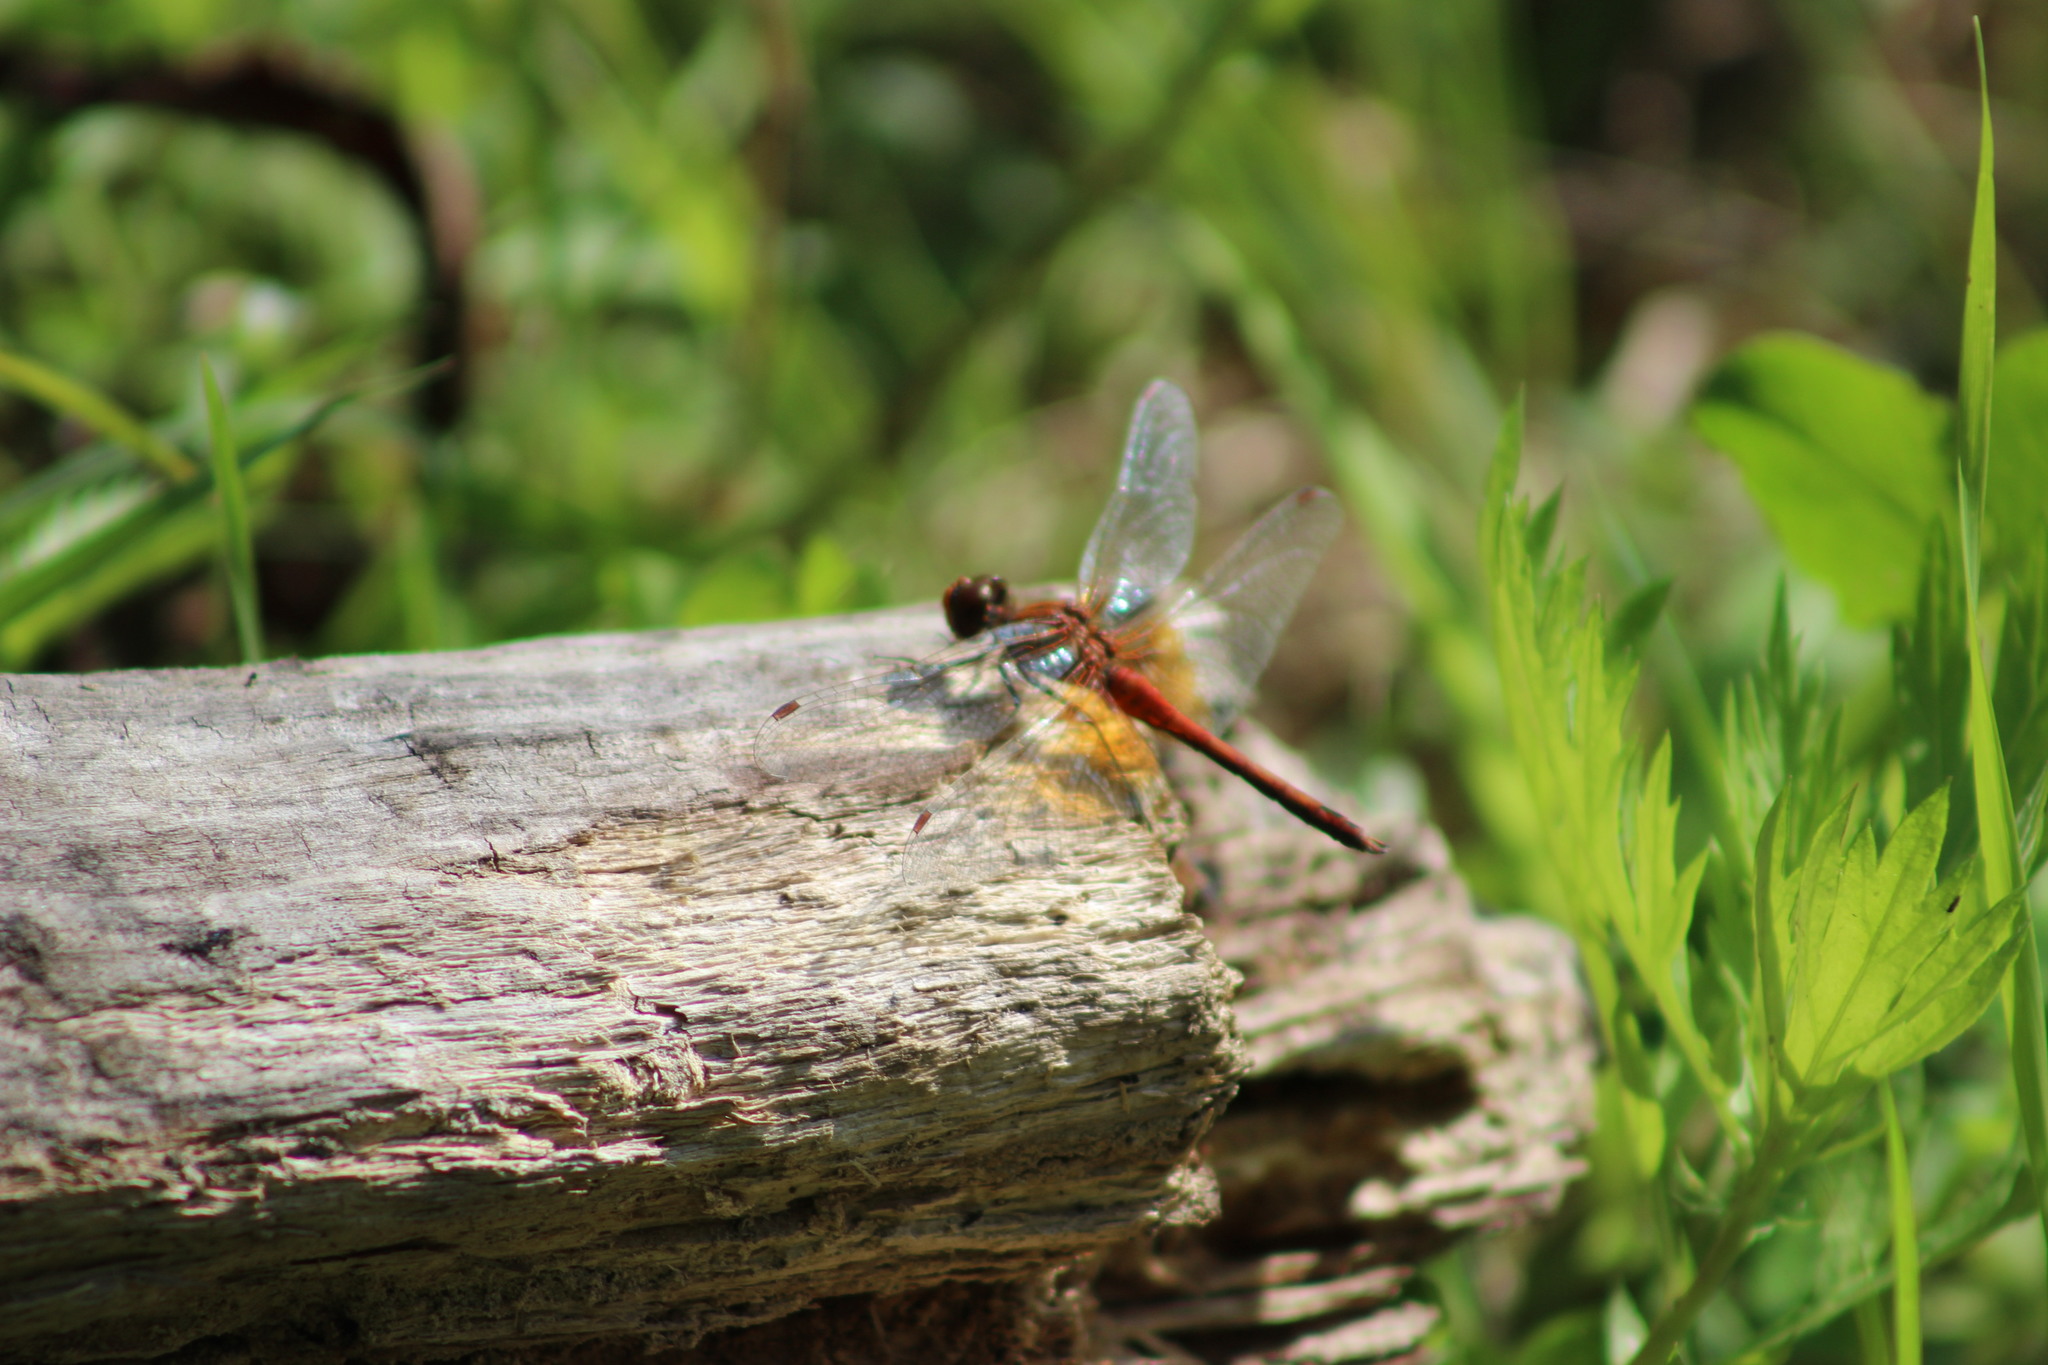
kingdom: Animalia
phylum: Arthropoda
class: Insecta
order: Odonata
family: Libellulidae
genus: Sympetrum
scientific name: Sympetrum flaveolum
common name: Yellow-winged darter
